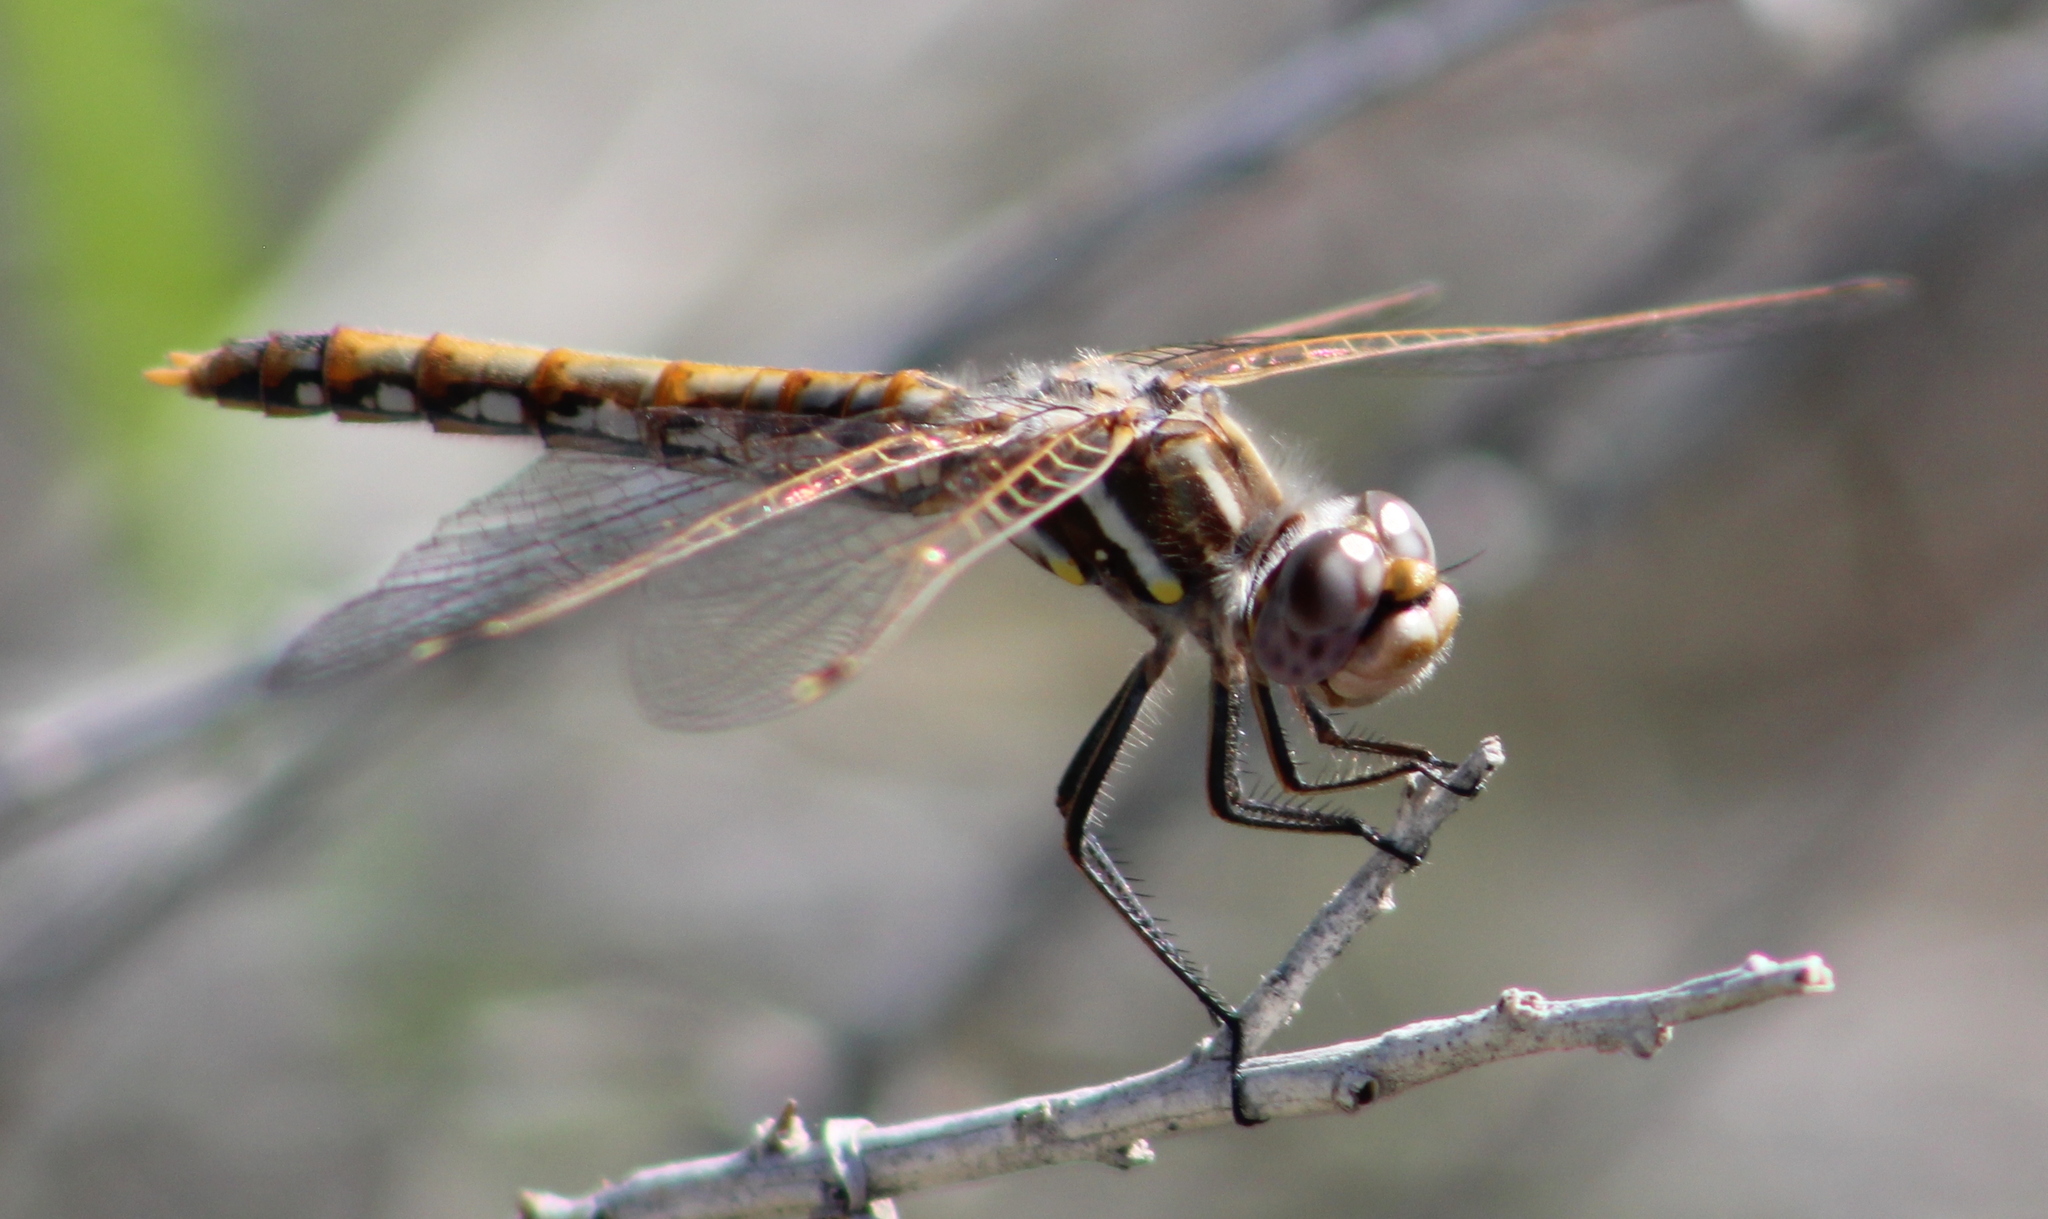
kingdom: Animalia
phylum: Arthropoda
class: Insecta
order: Odonata
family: Libellulidae
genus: Sympetrum
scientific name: Sympetrum corruptum
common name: Variegated meadowhawk
